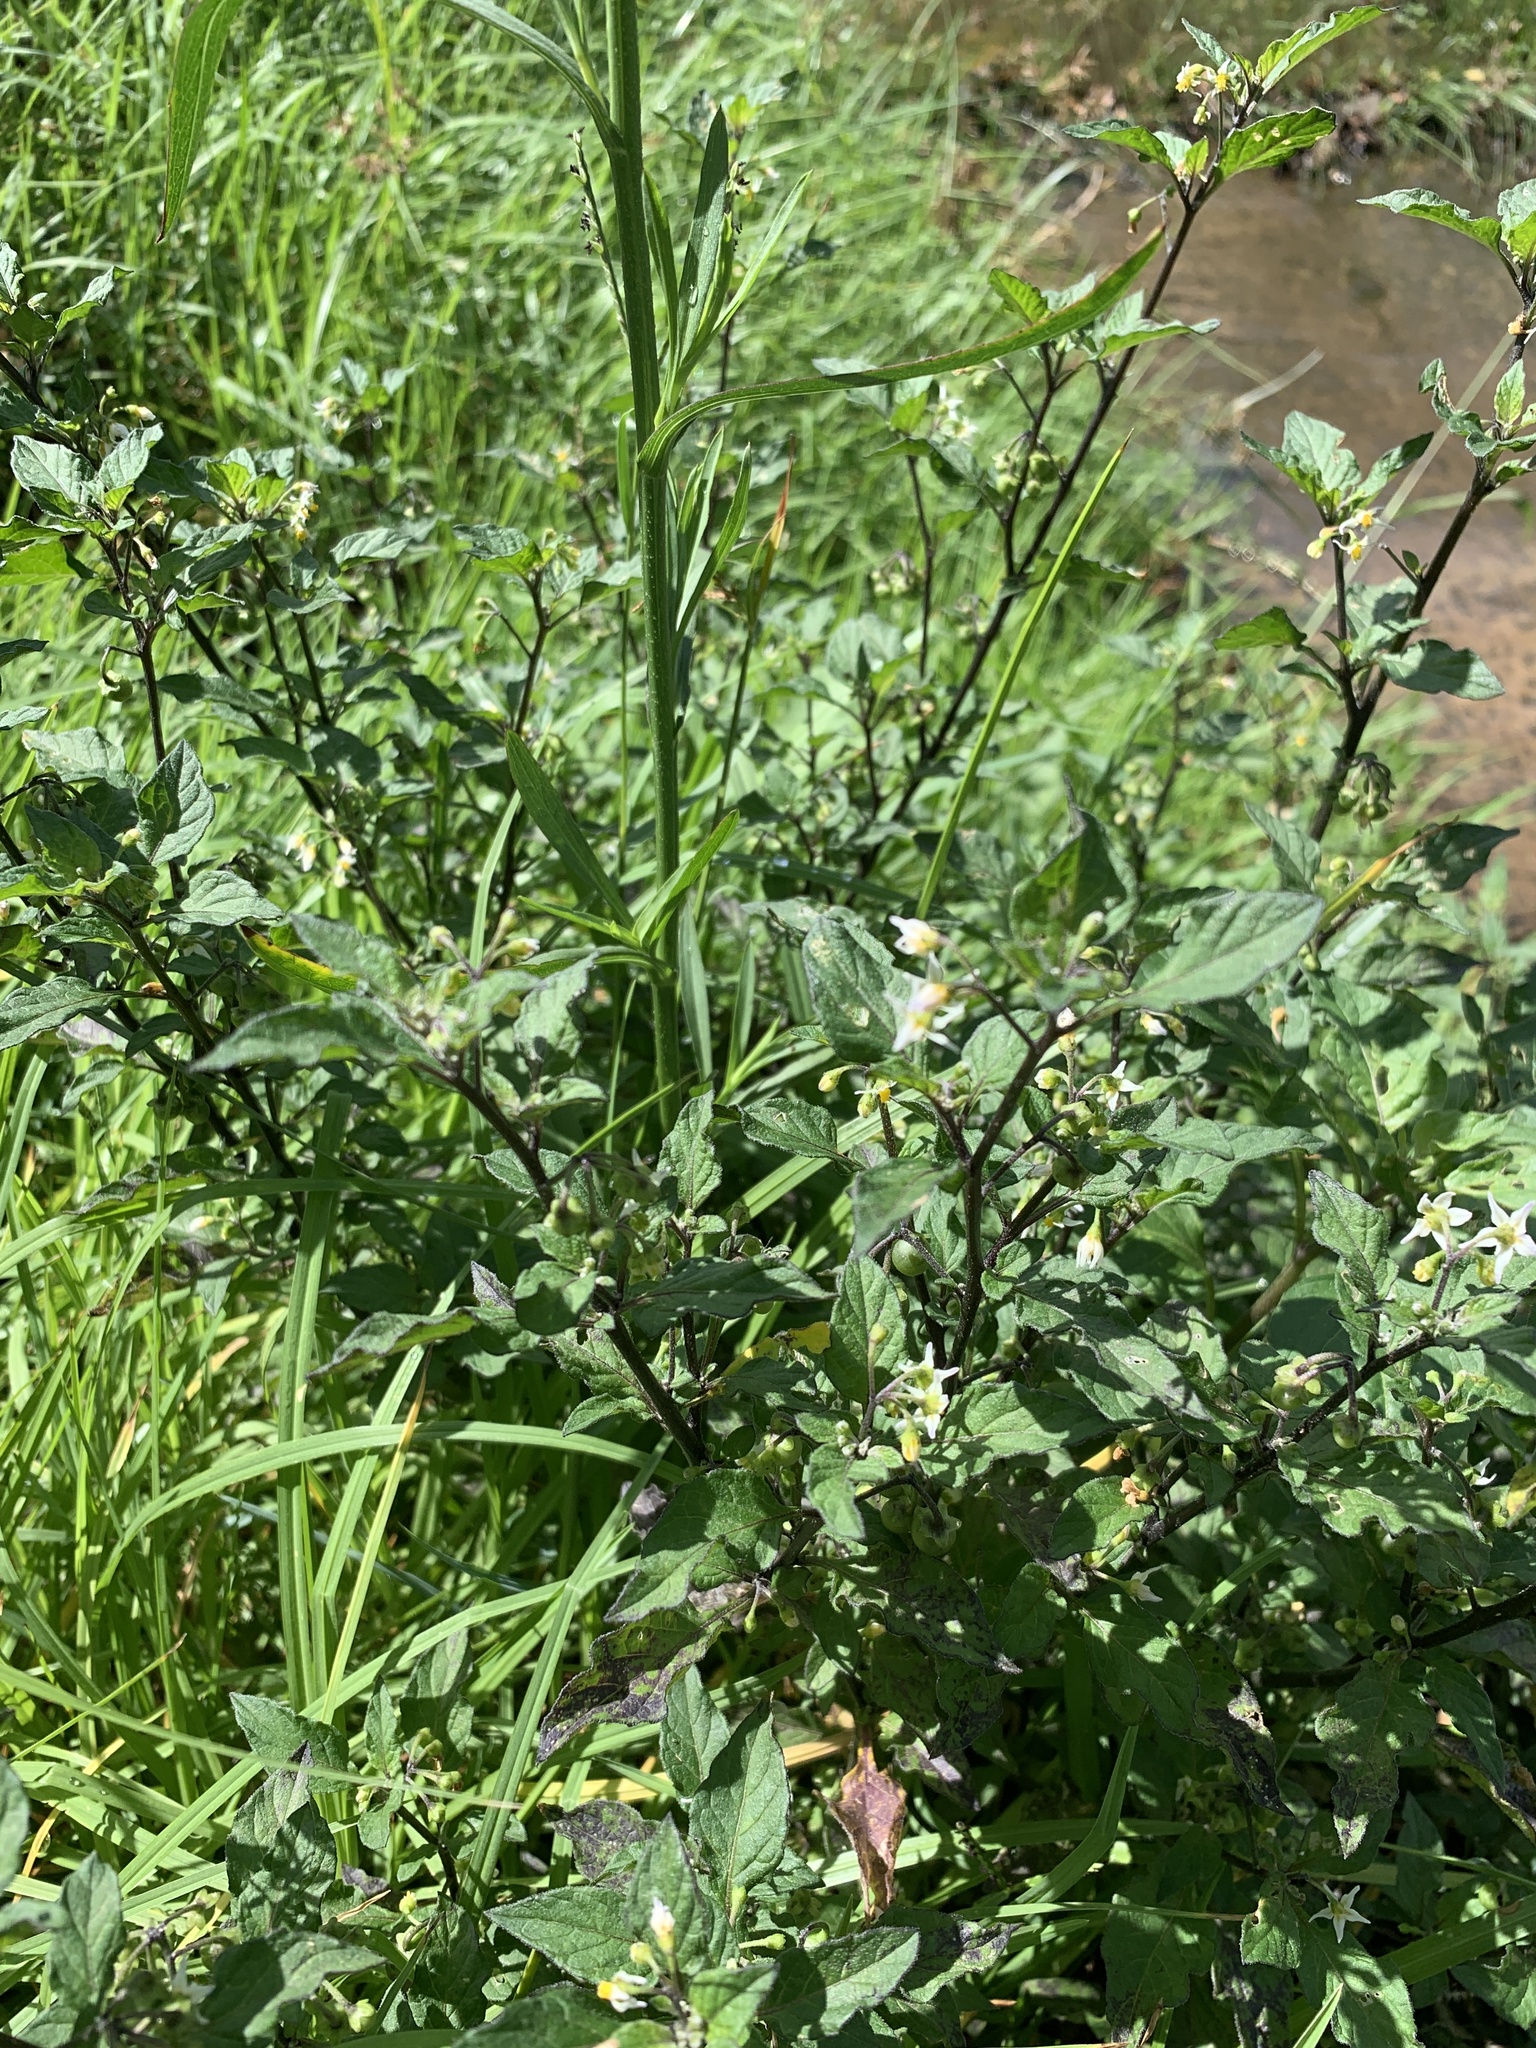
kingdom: Plantae
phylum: Tracheophyta
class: Magnoliopsida
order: Solanales
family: Solanaceae
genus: Solanum
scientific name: Solanum nigrum
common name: Black nightshade
